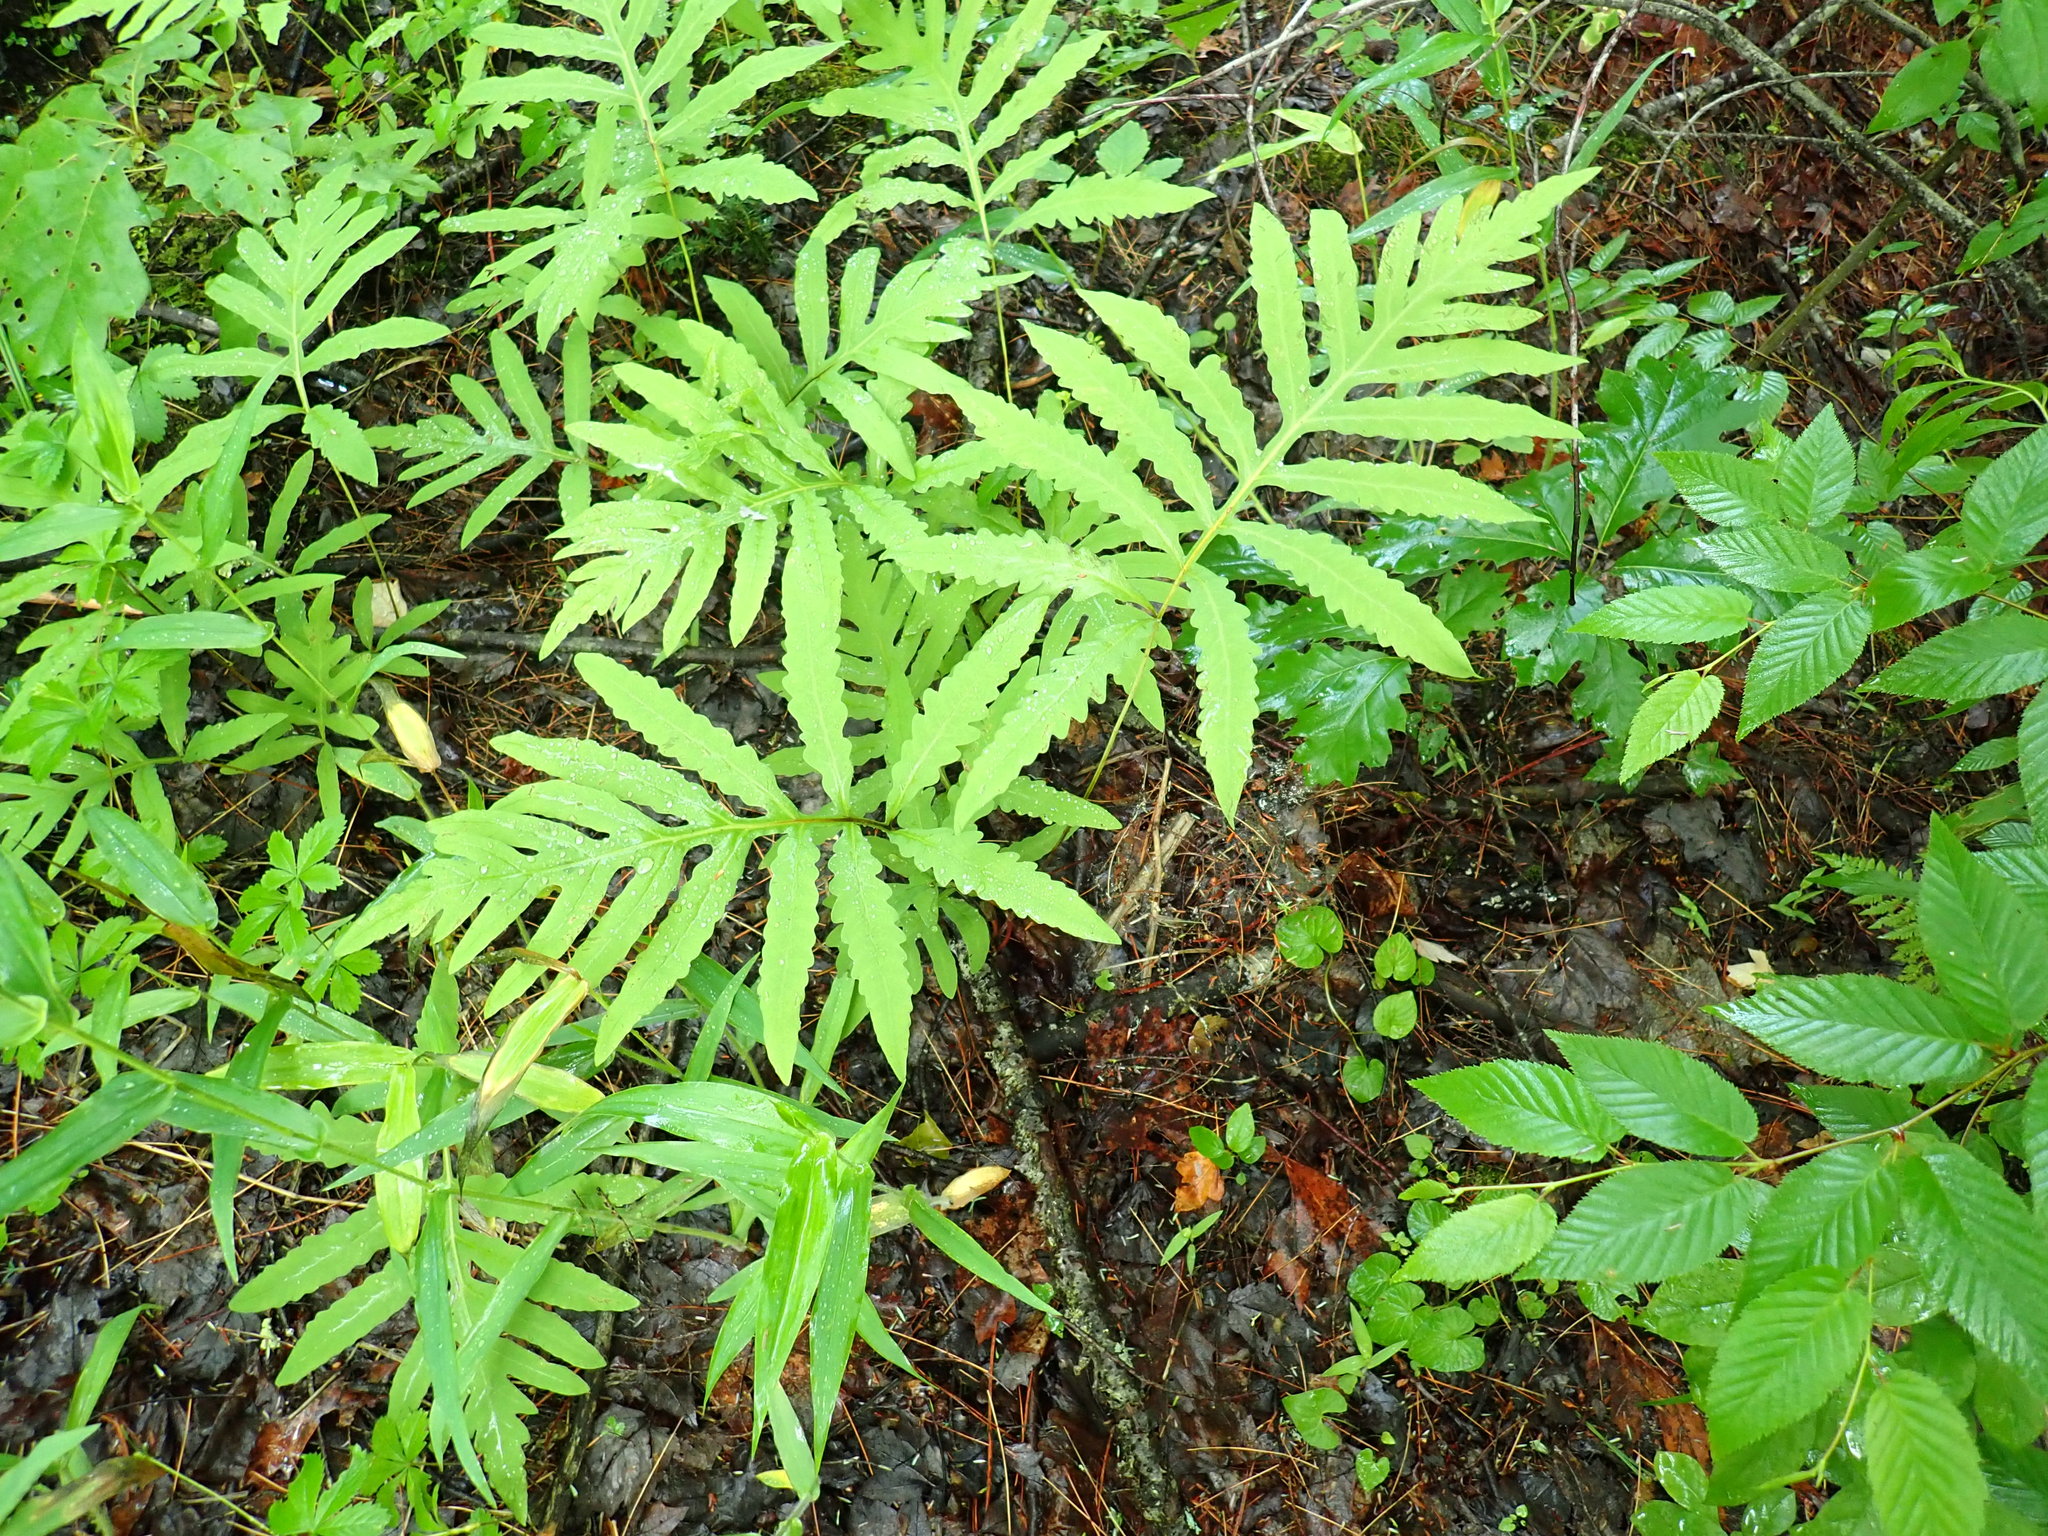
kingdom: Plantae
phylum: Tracheophyta
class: Polypodiopsida
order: Polypodiales
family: Onocleaceae
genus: Onoclea
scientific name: Onoclea sensibilis
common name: Sensitive fern
